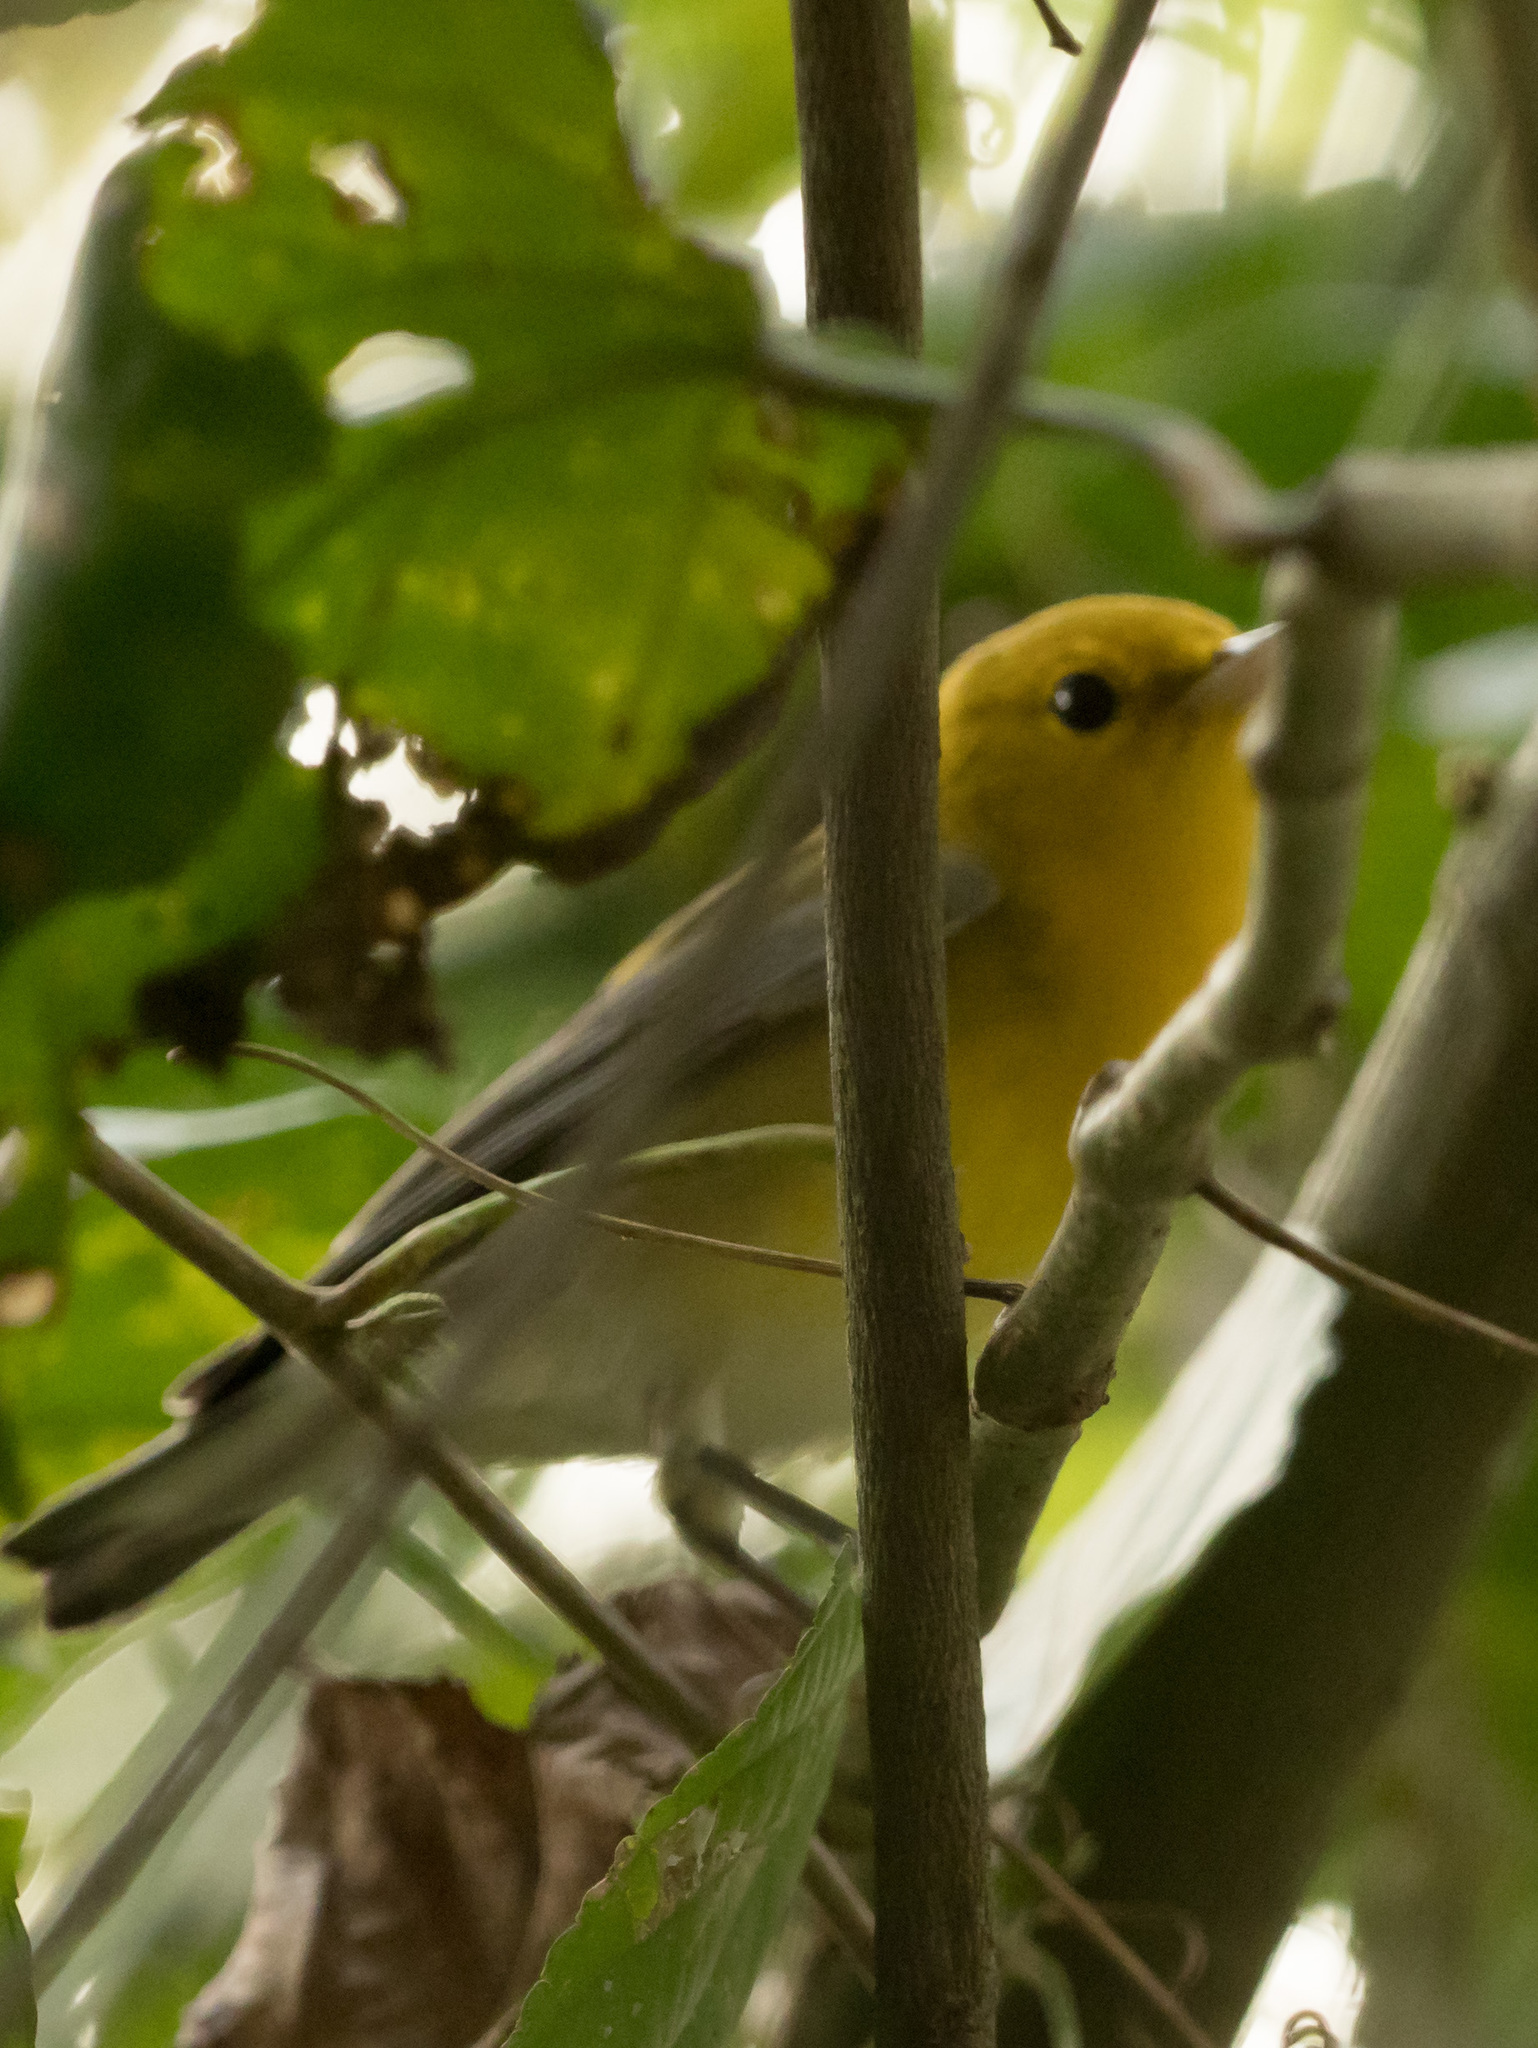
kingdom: Animalia
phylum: Chordata
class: Aves
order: Passeriformes
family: Parulidae
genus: Protonotaria
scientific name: Protonotaria citrea
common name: Prothonotary warbler
